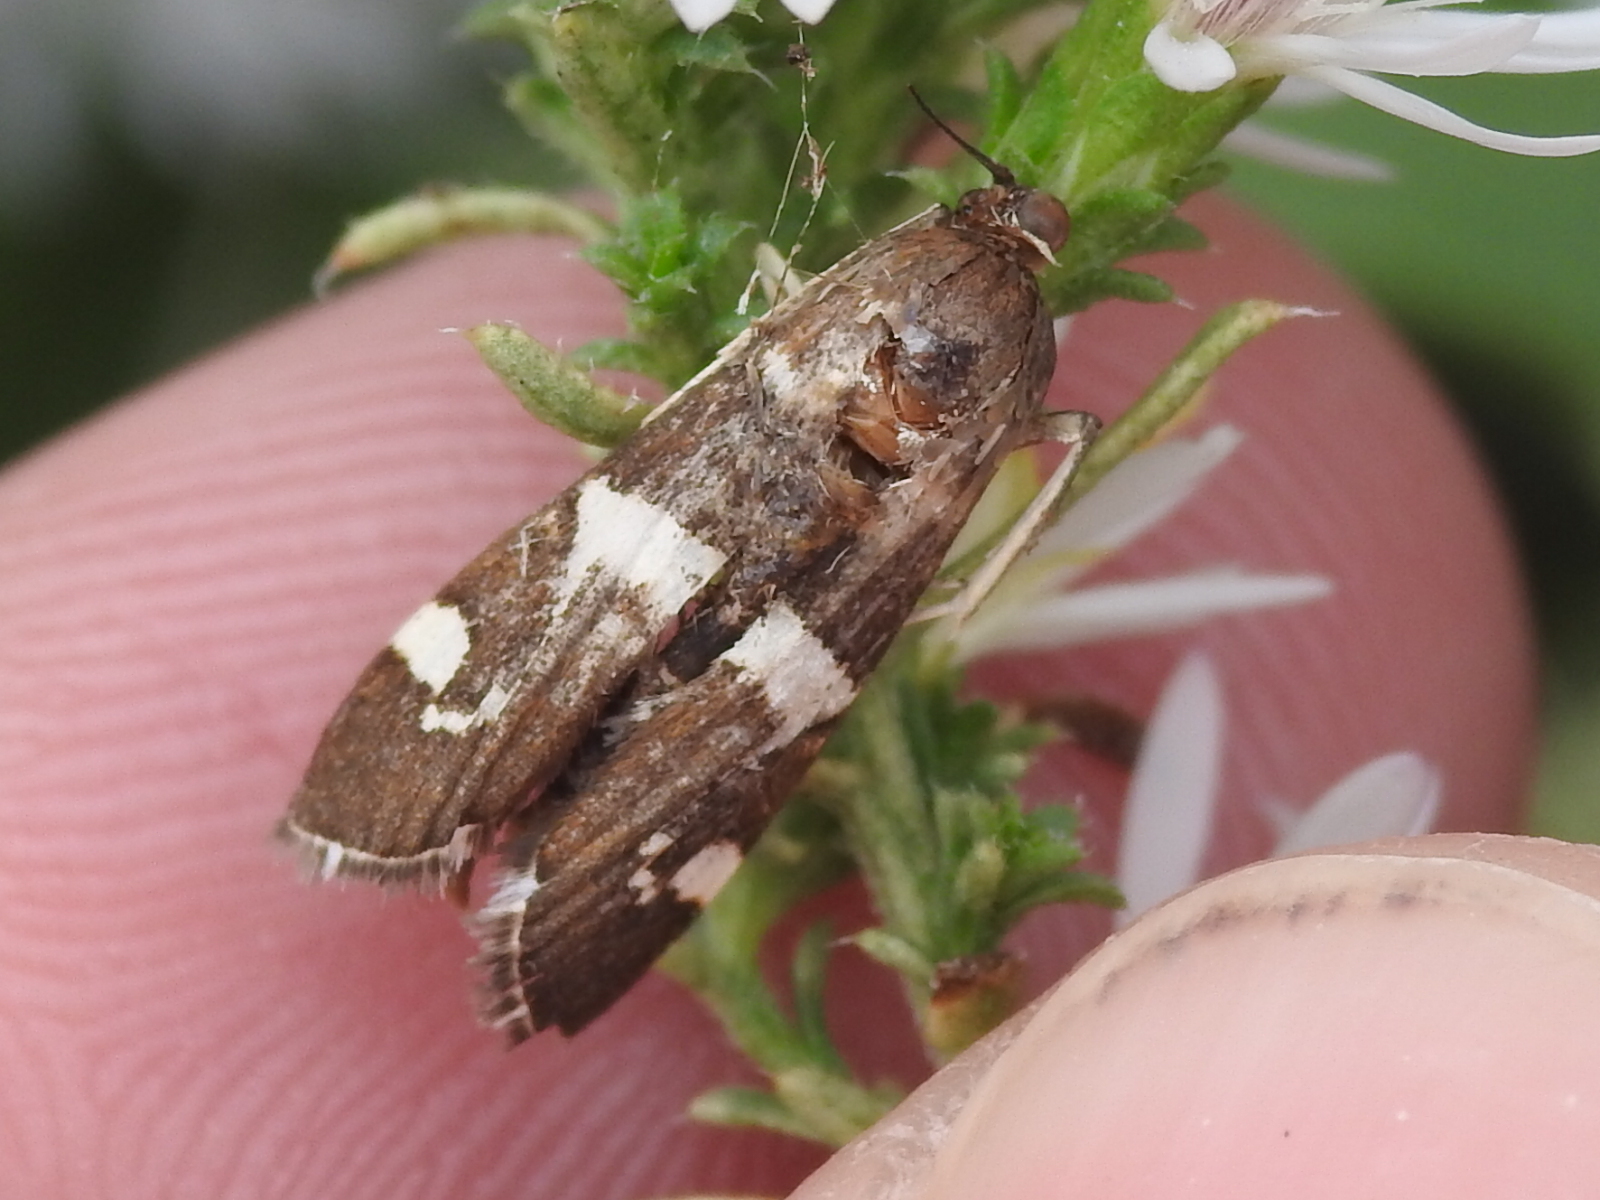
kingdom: Animalia
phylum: Arthropoda
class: Insecta
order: Lepidoptera
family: Crambidae
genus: Spoladea
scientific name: Spoladea recurvalis
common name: Beet webworm moth
